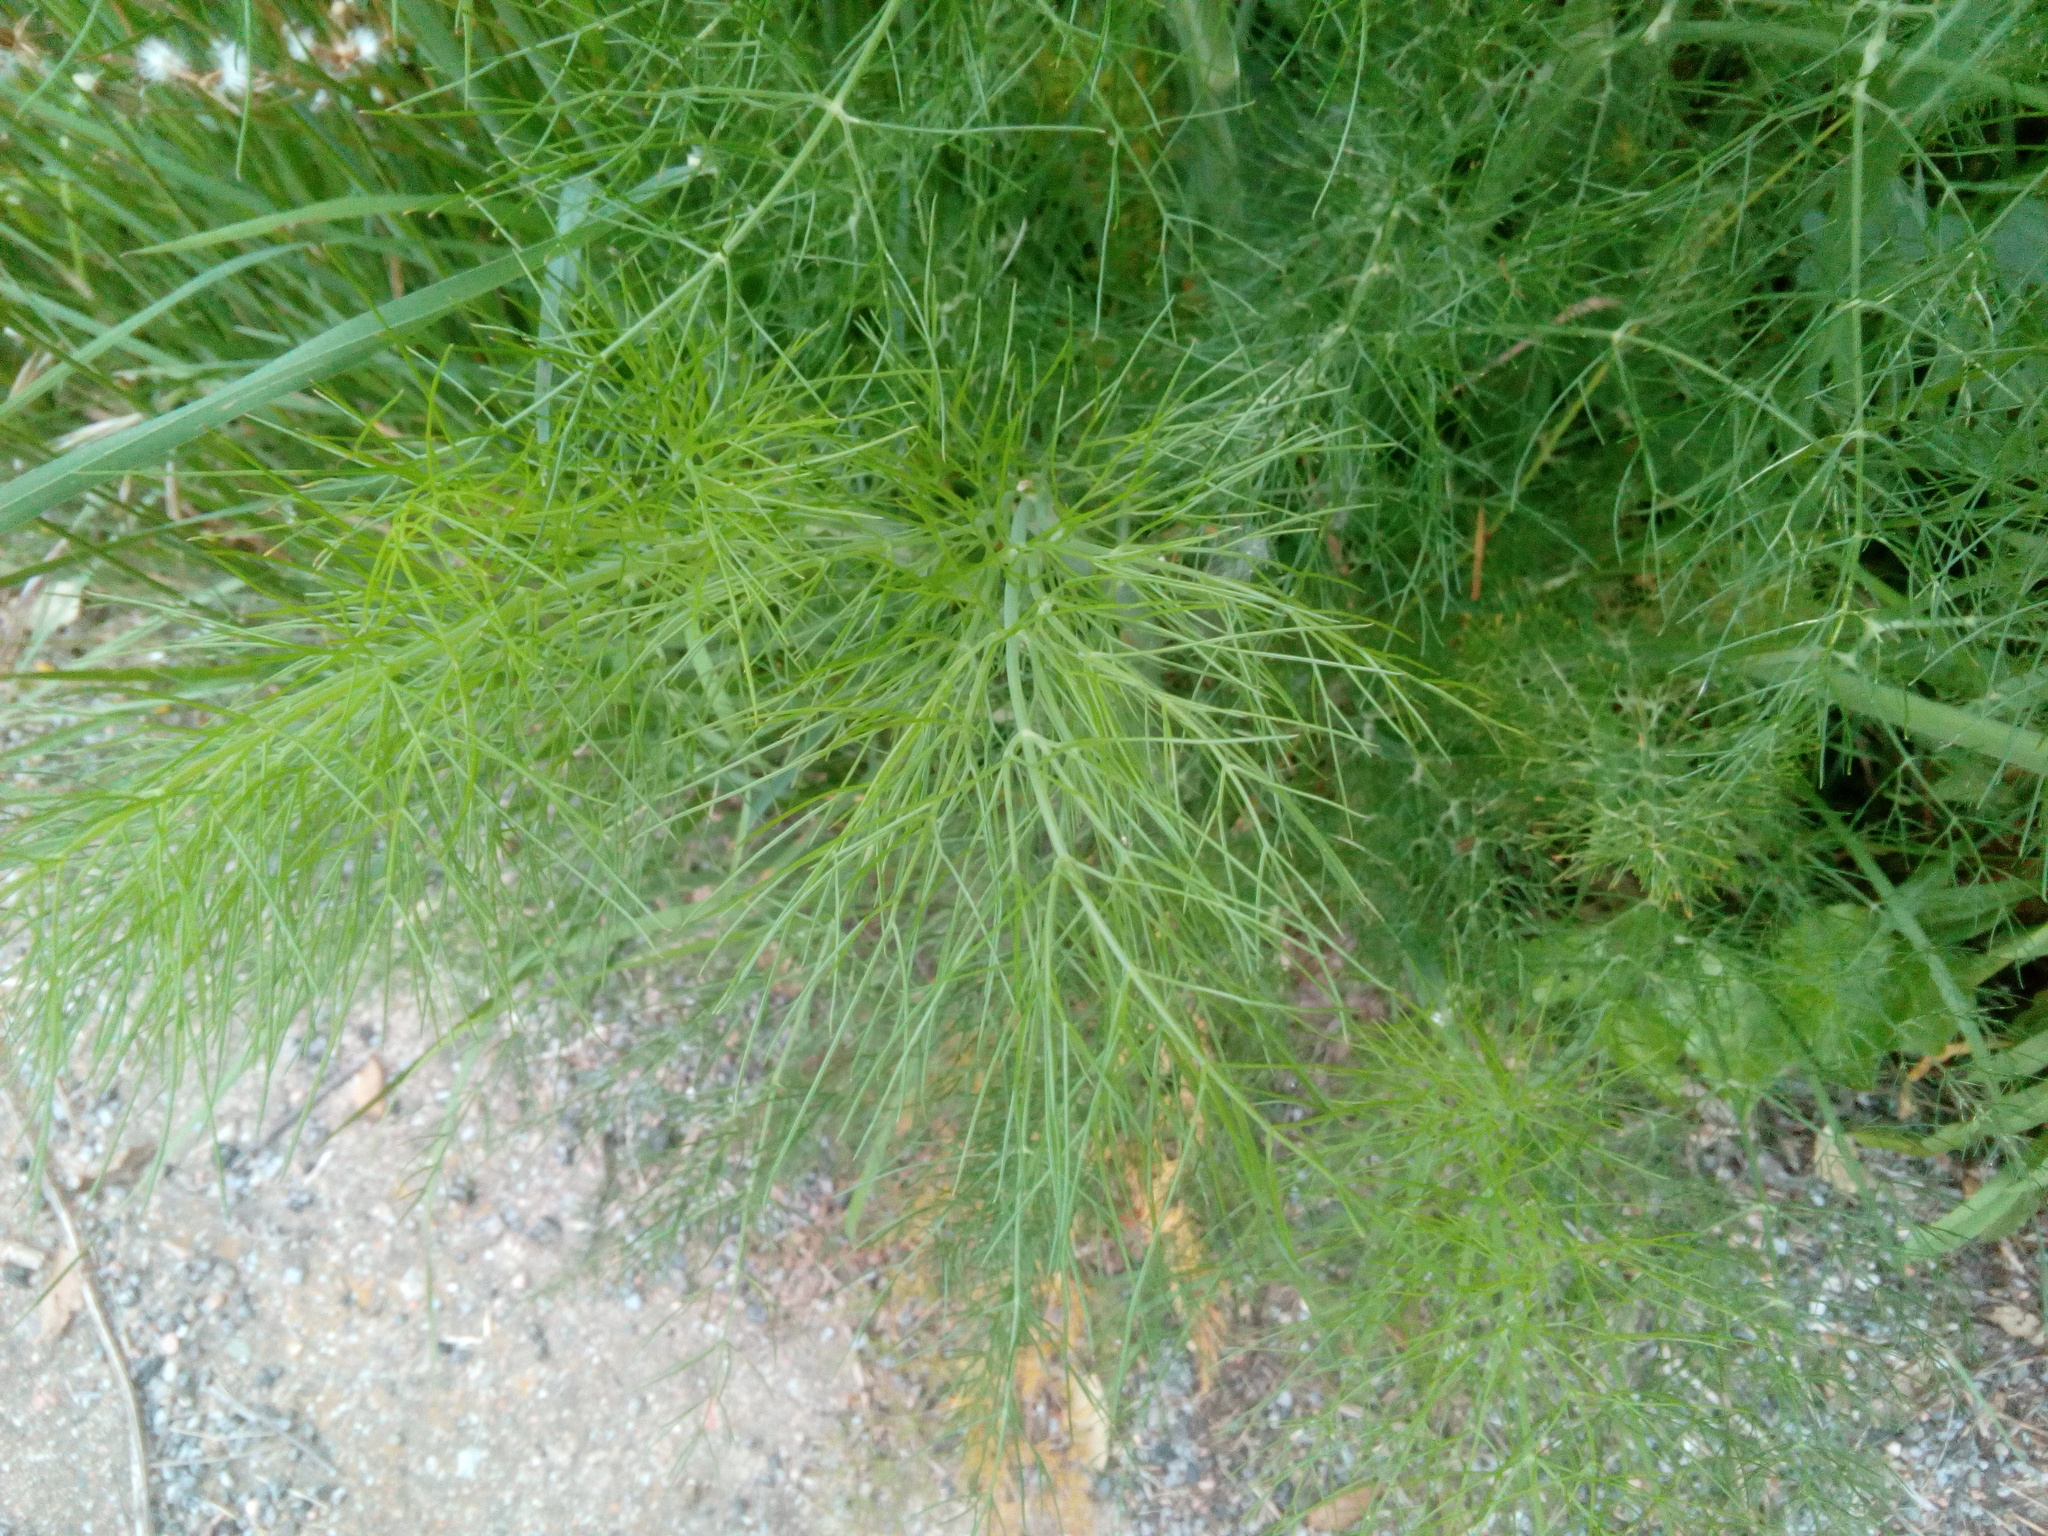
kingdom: Plantae
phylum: Tracheophyta
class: Magnoliopsida
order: Apiales
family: Apiaceae
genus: Foeniculum
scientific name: Foeniculum vulgare
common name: Fennel
